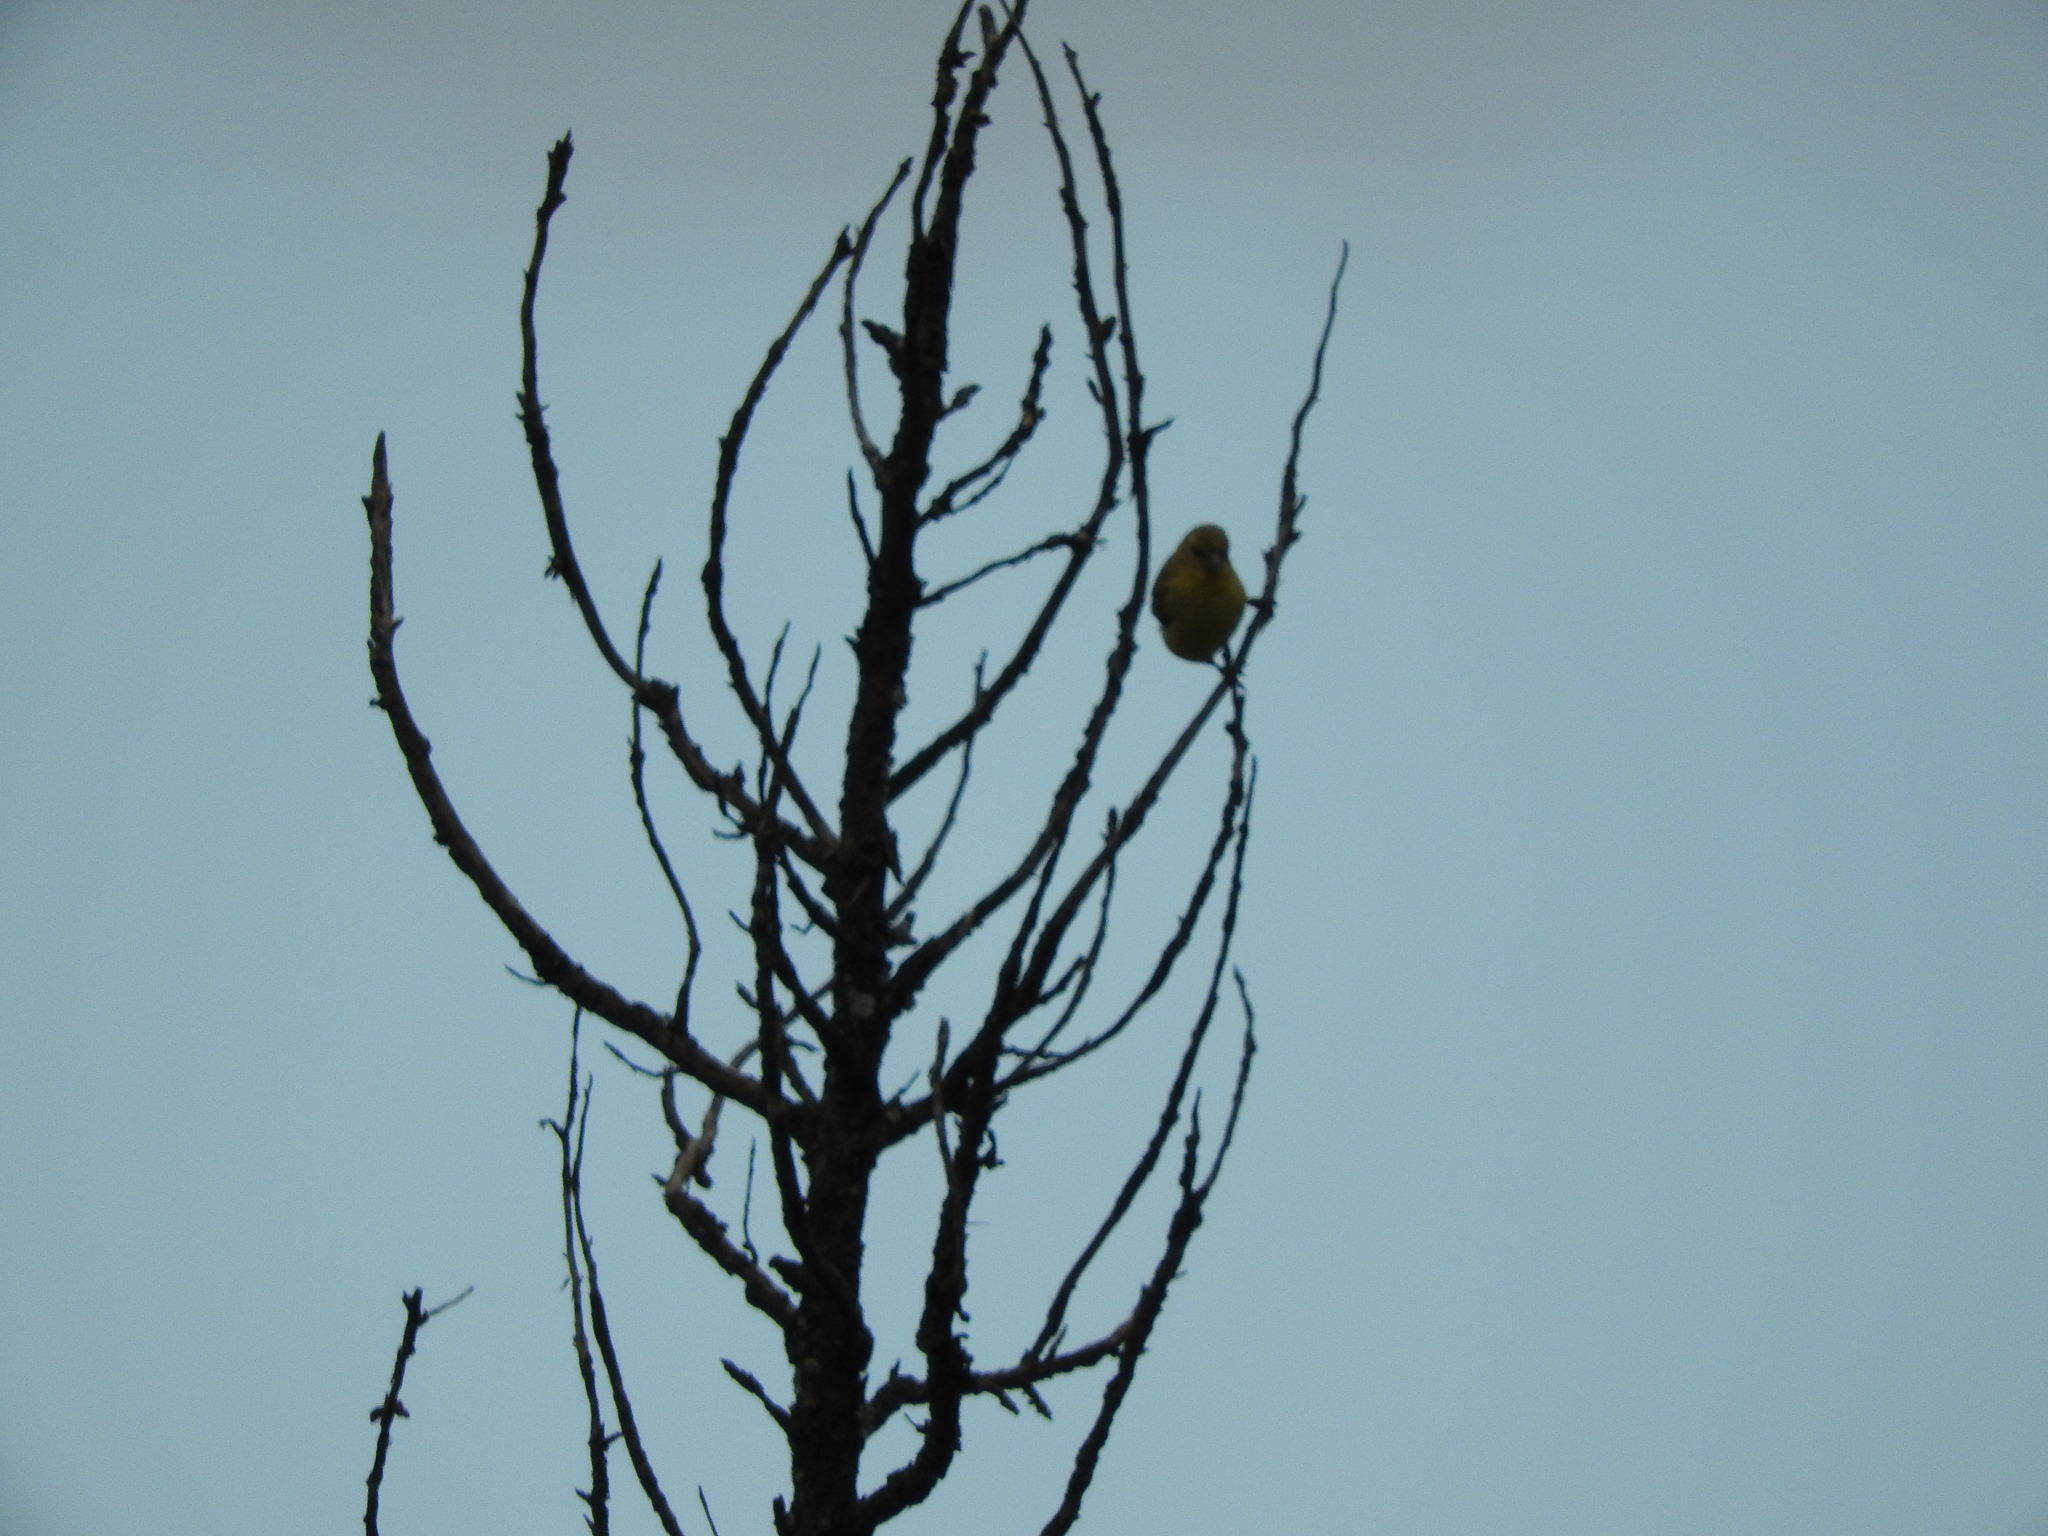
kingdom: Animalia
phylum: Chordata
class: Aves
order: Passeriformes
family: Fringillidae
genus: Spinus
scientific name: Spinus psaltria
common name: Lesser goldfinch
